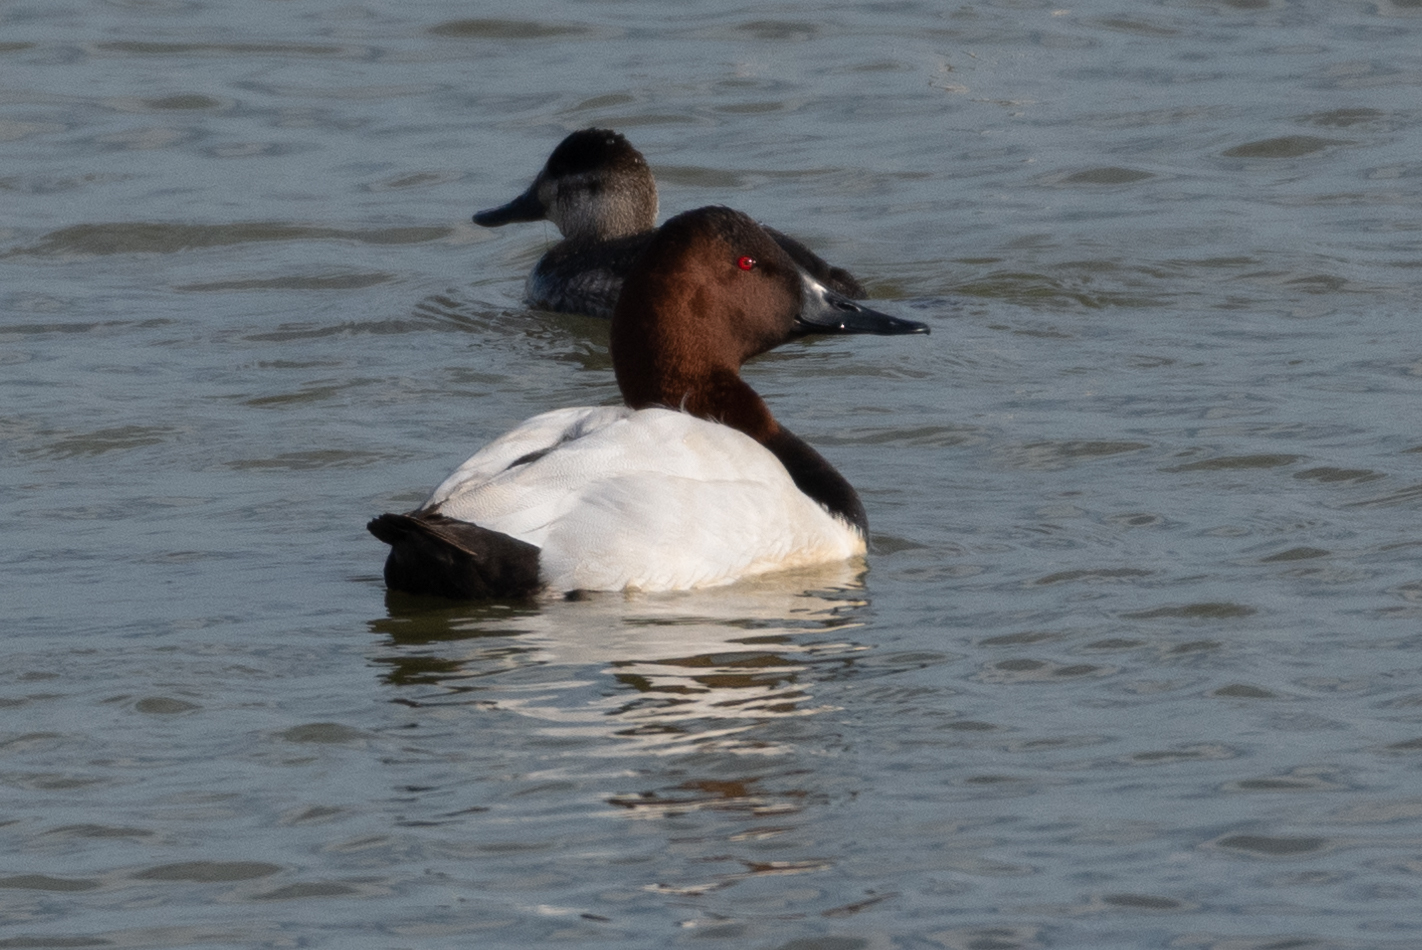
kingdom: Animalia
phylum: Chordata
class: Aves
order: Anseriformes
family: Anatidae
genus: Aythya
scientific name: Aythya valisineria
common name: Canvasback
